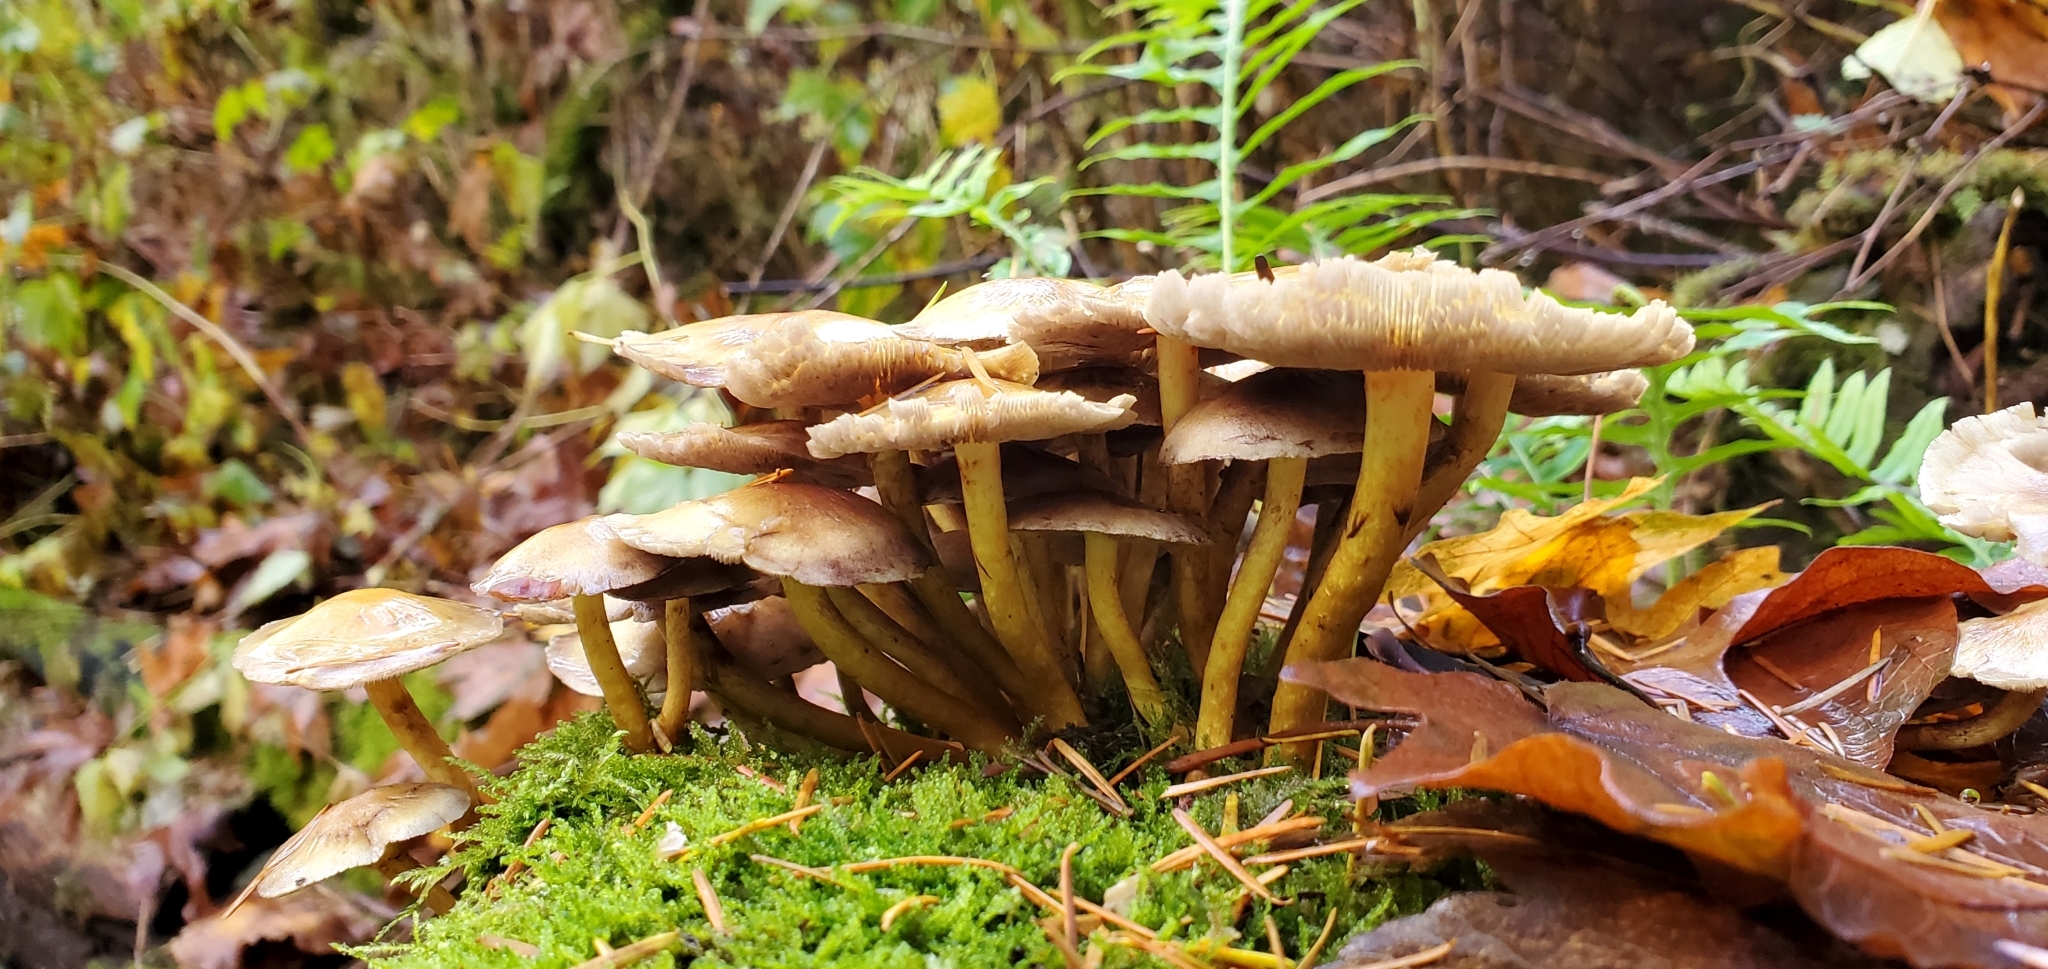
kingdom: Fungi
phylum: Basidiomycota
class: Agaricomycetes
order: Agaricales
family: Strophariaceae
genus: Hypholoma
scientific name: Hypholoma capnoides
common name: Conifer tuft
